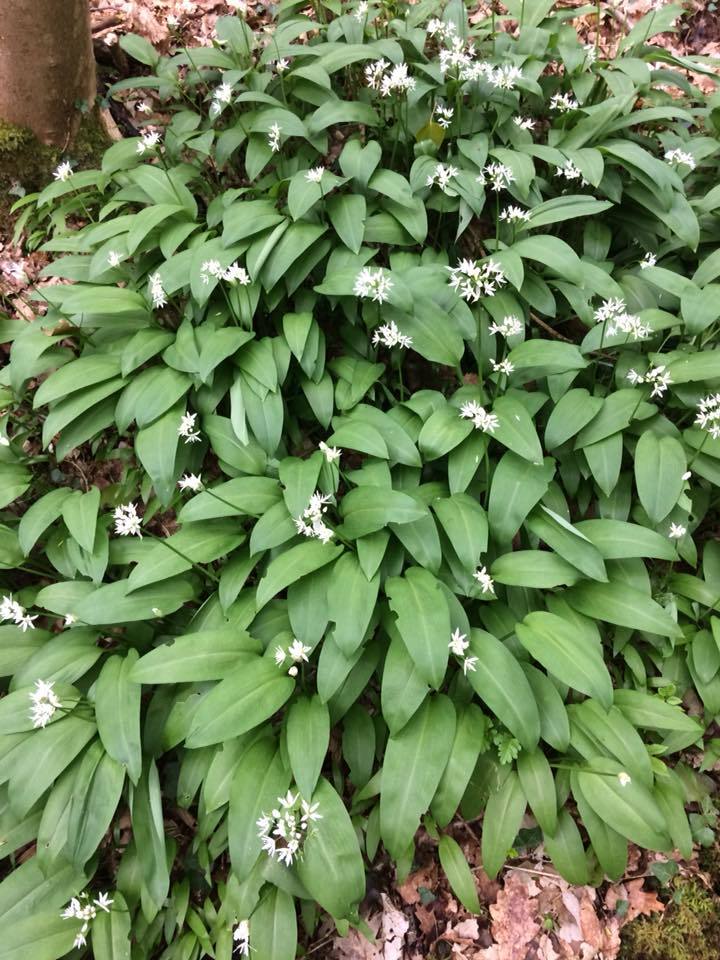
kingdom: Plantae
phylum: Tracheophyta
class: Liliopsida
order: Asparagales
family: Amaryllidaceae
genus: Allium
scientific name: Allium ursinum
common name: Ramsons
